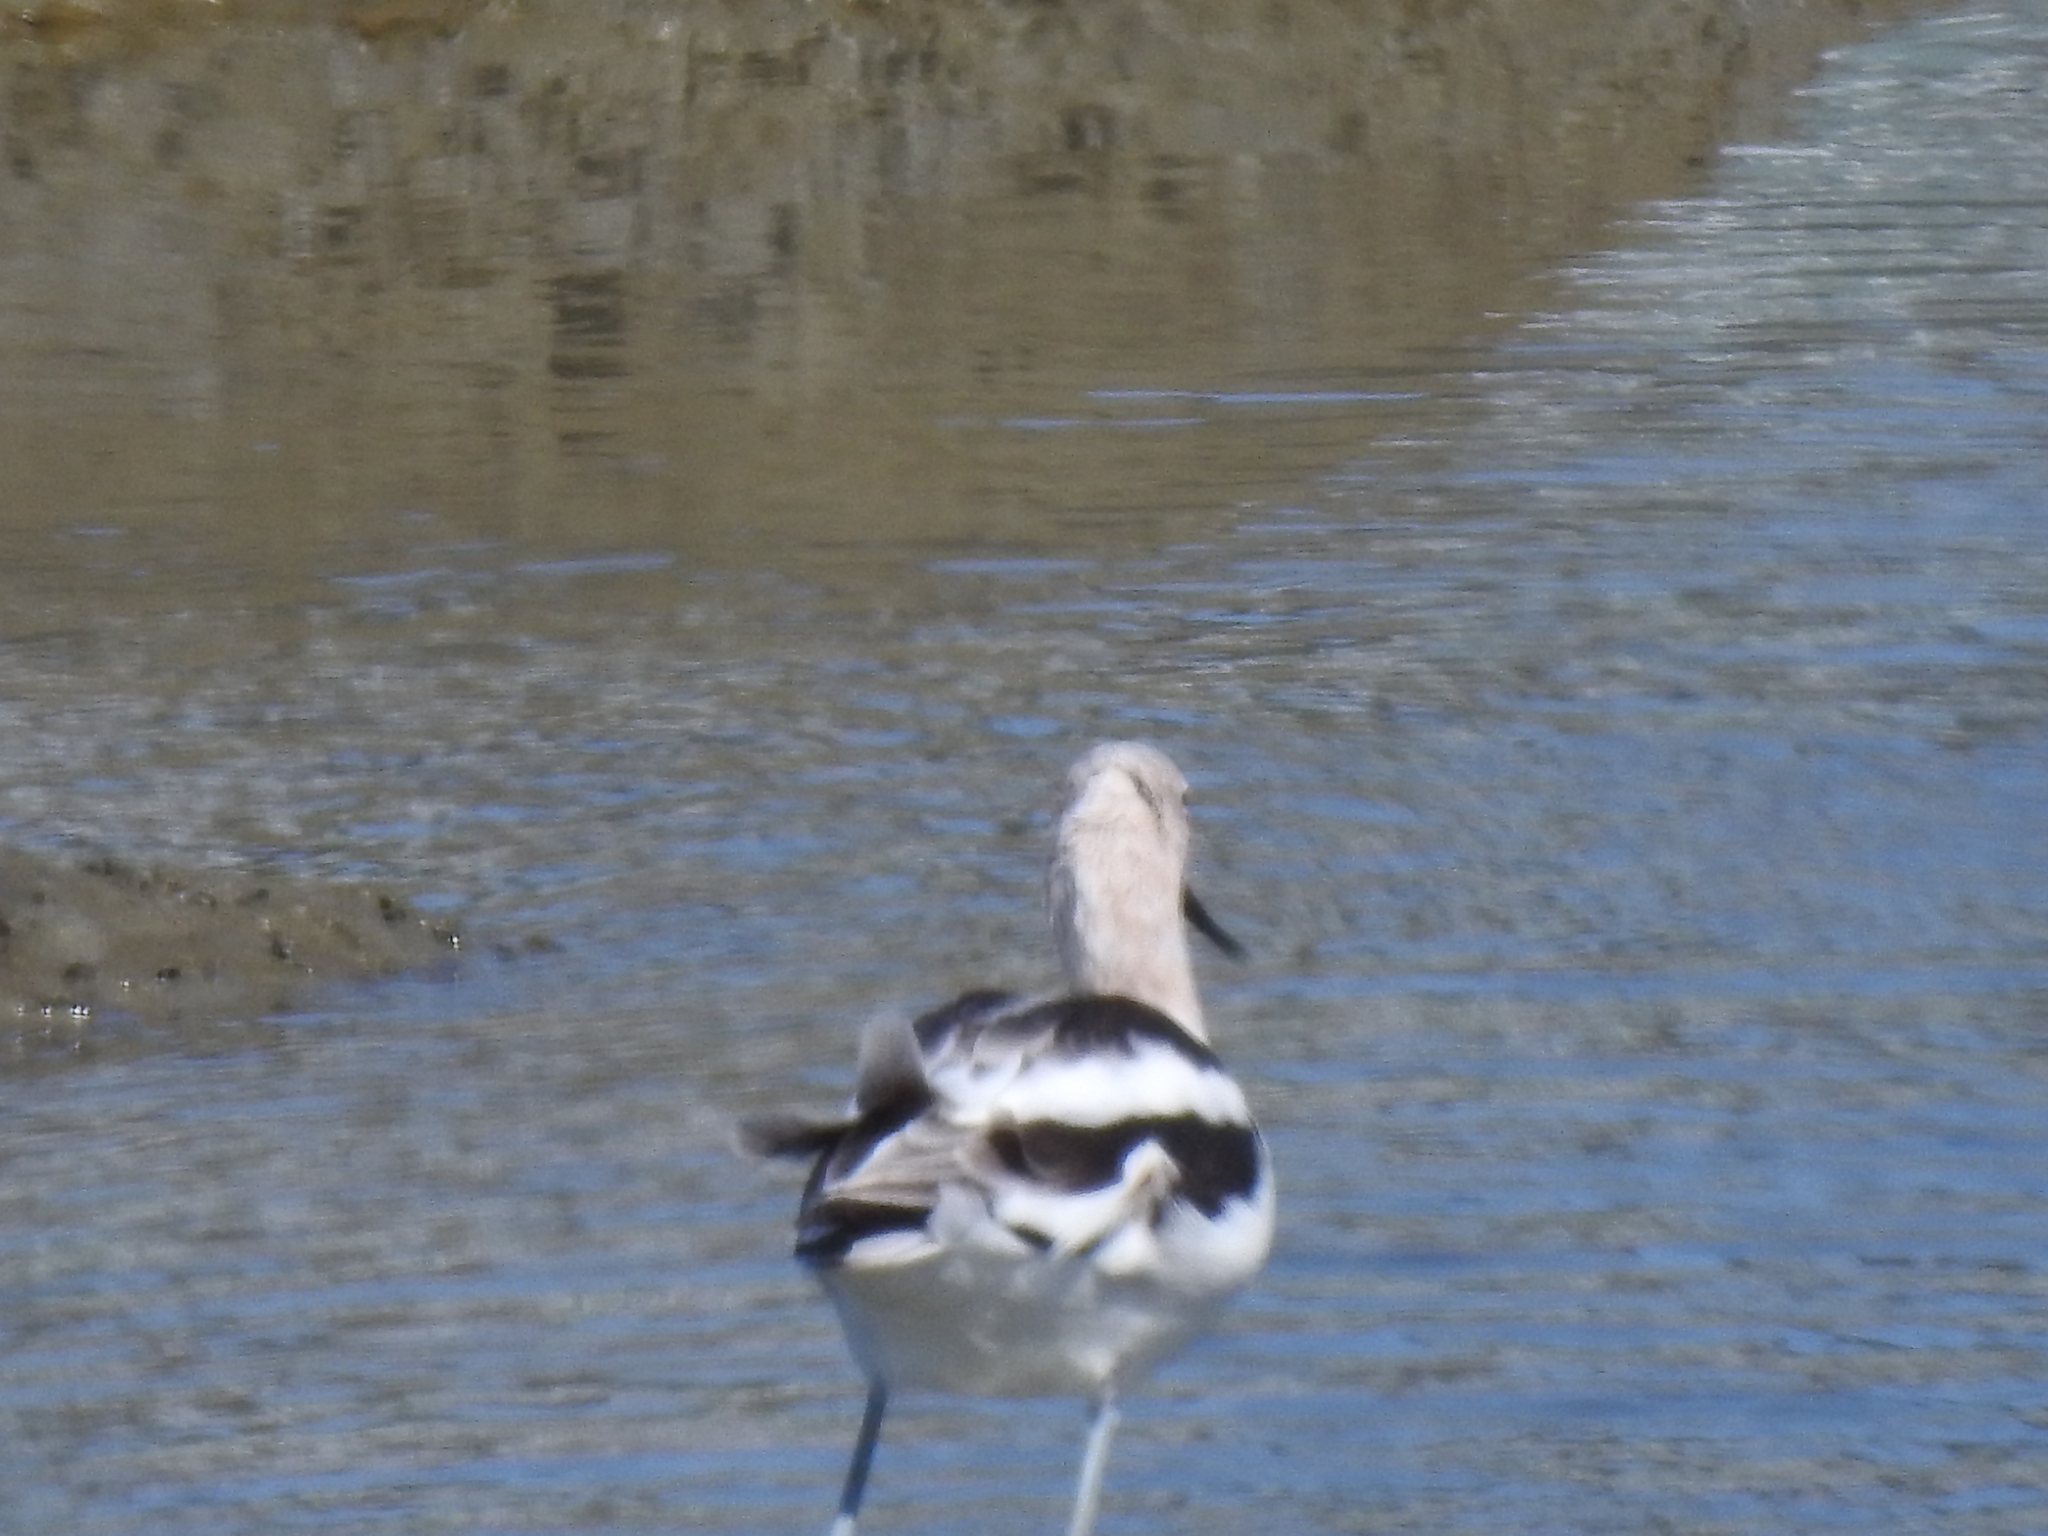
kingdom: Animalia
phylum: Chordata
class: Aves
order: Charadriiformes
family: Recurvirostridae
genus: Recurvirostra
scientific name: Recurvirostra americana
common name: American avocet
